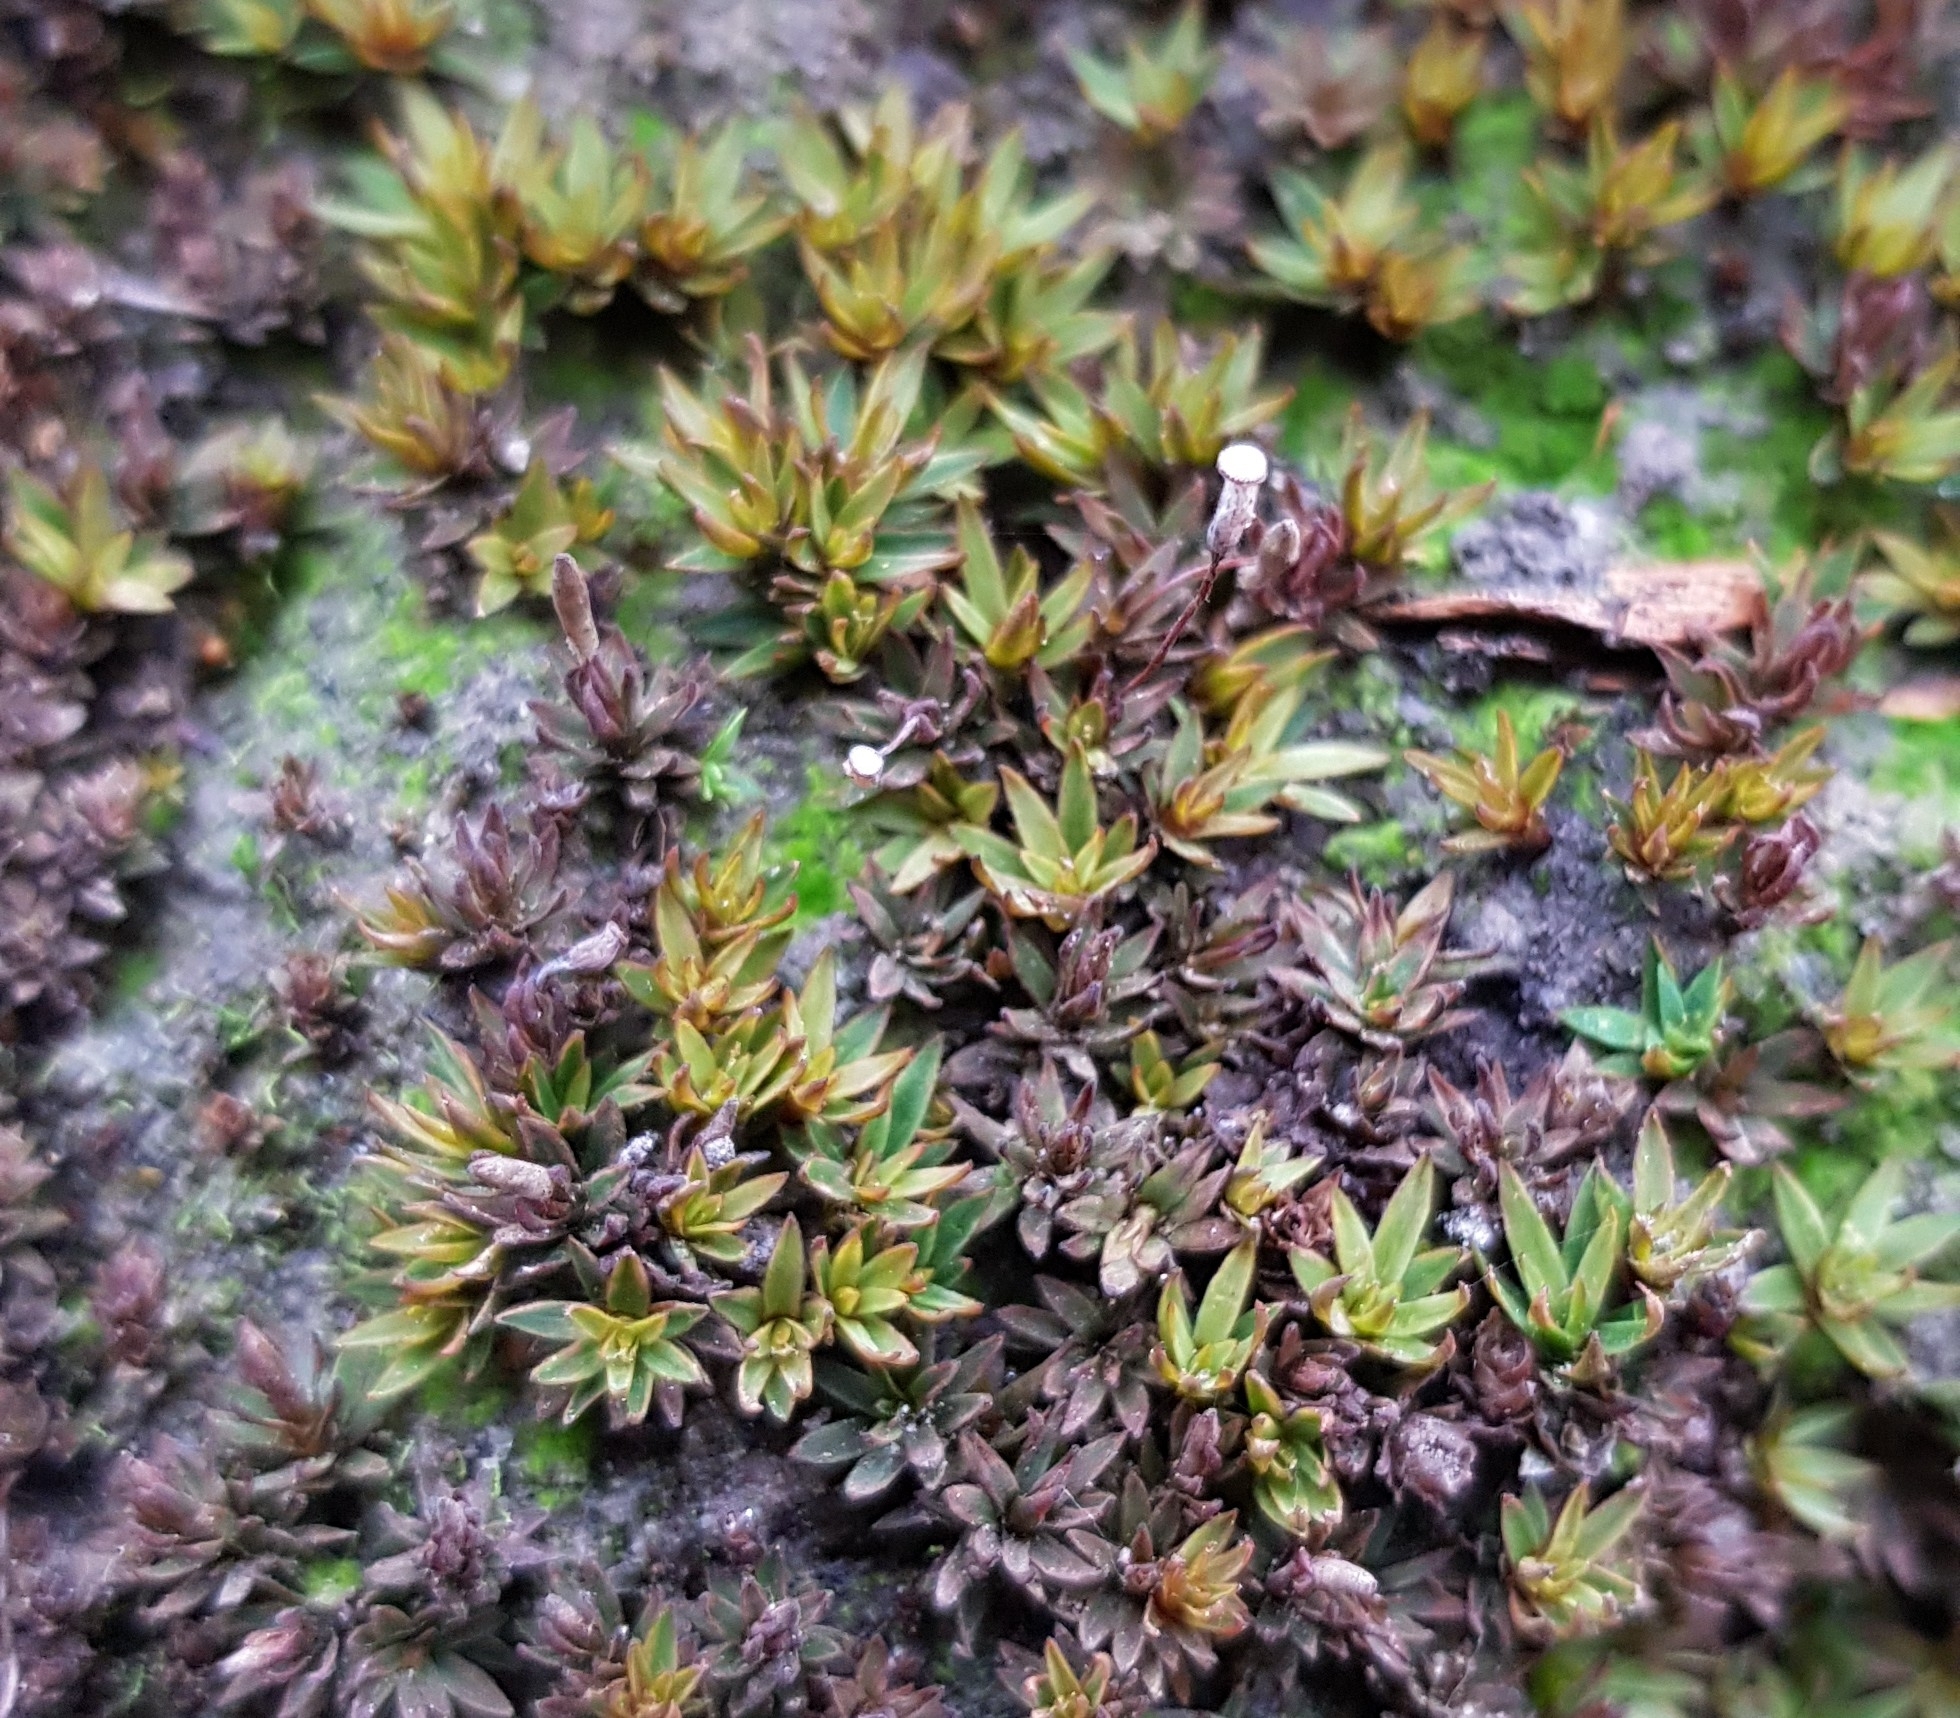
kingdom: Plantae
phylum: Bryophyta
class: Polytrichopsida
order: Polytrichales
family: Polytrichaceae
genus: Pogonatum
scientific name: Pogonatum aloides
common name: Aloe haircap
